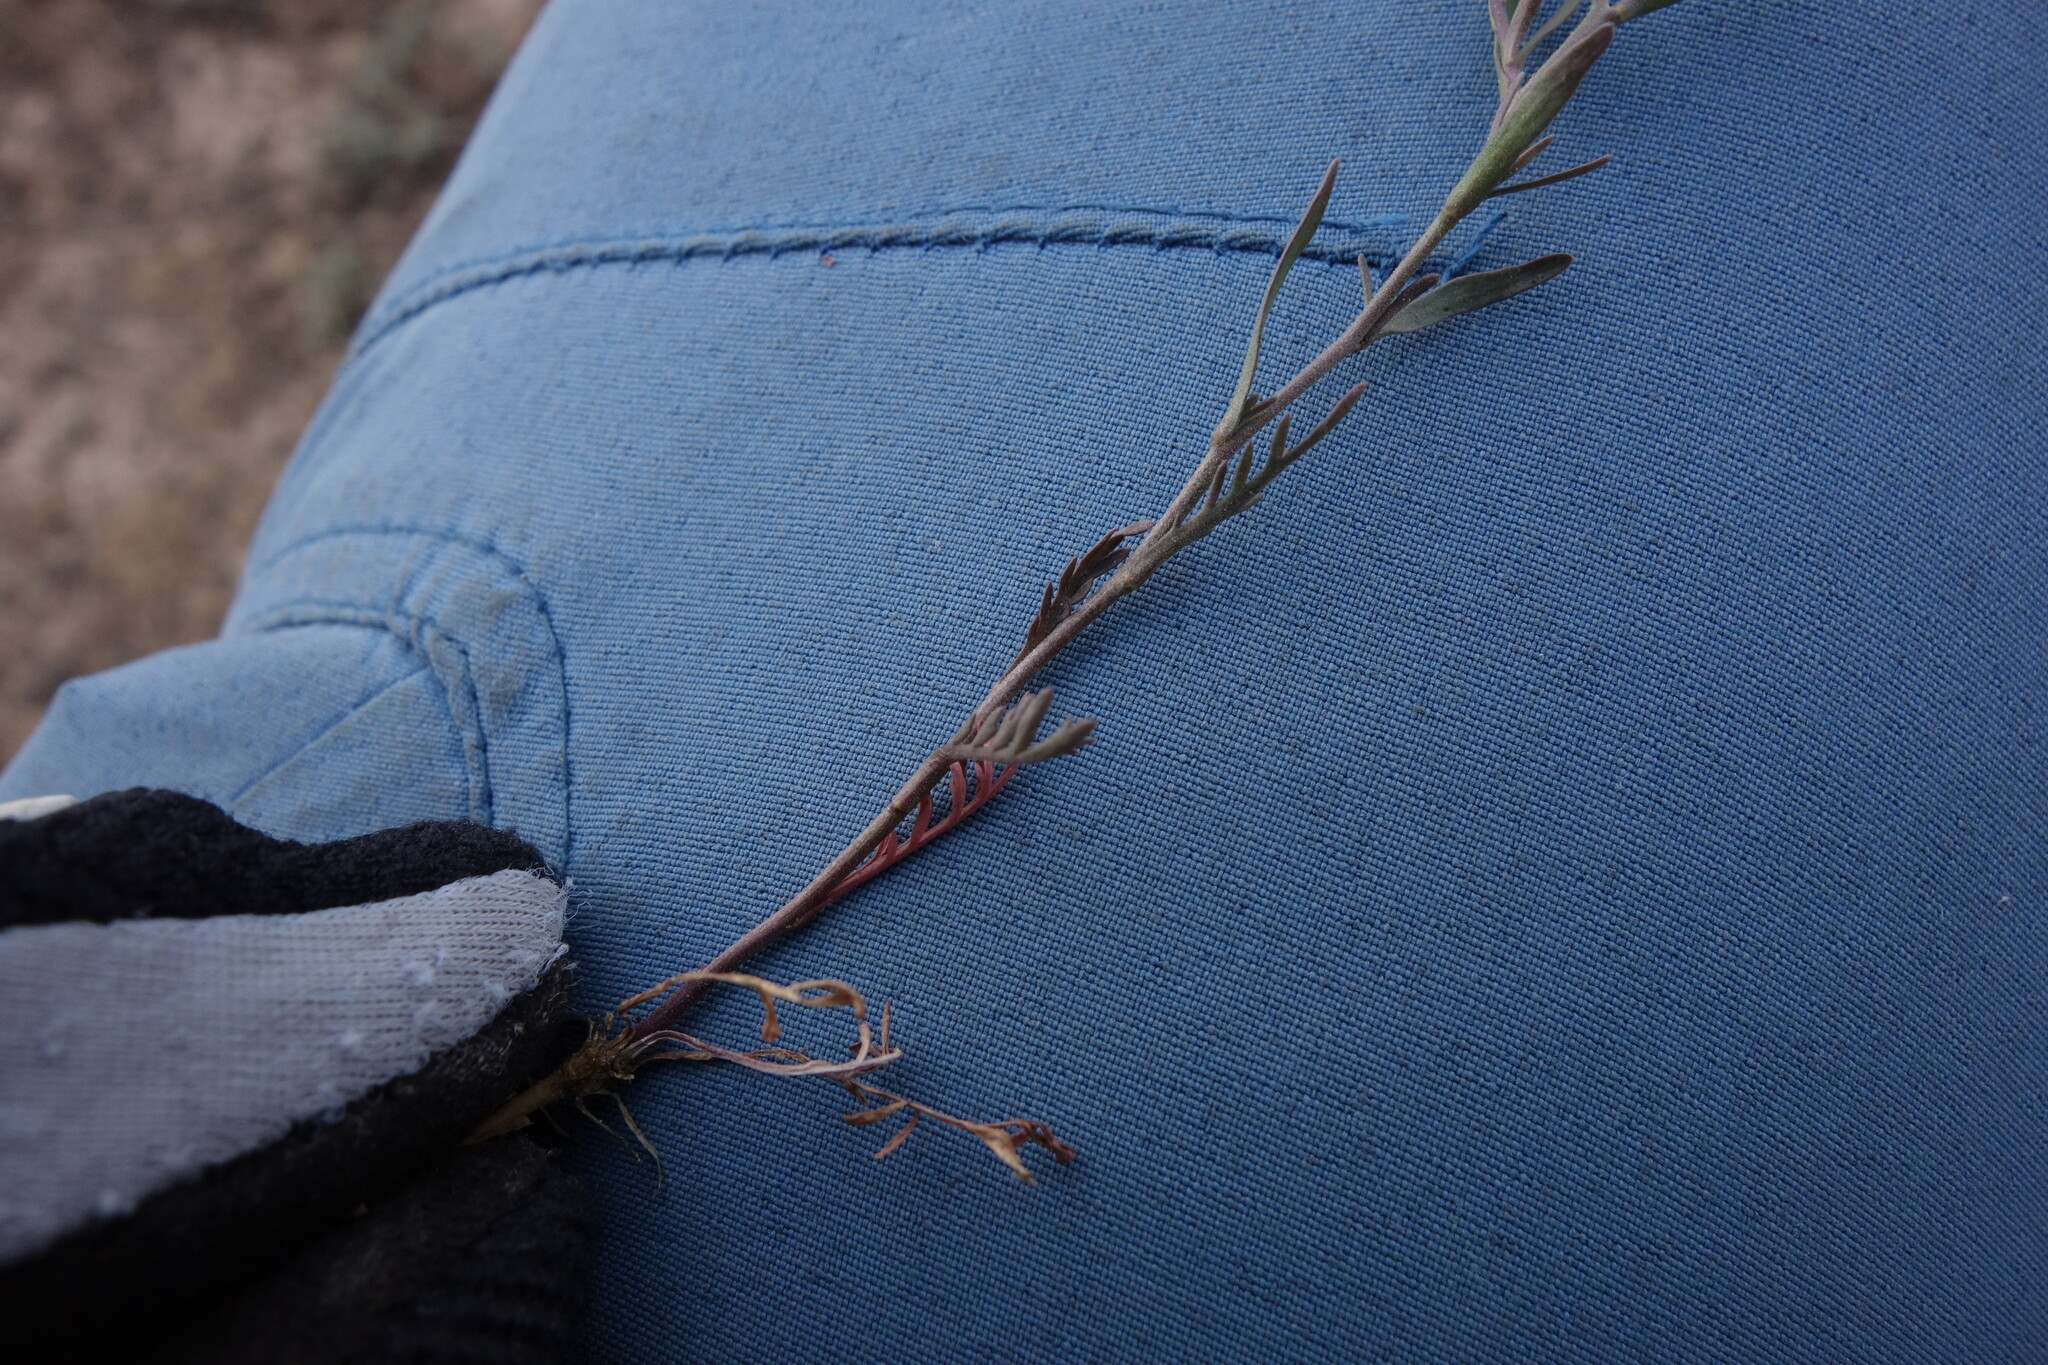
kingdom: Plantae
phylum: Tracheophyta
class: Magnoliopsida
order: Brassicales
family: Brassicaceae
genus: Lepidium
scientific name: Lepidium ruderale
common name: Narrow-leaved pepperwort
